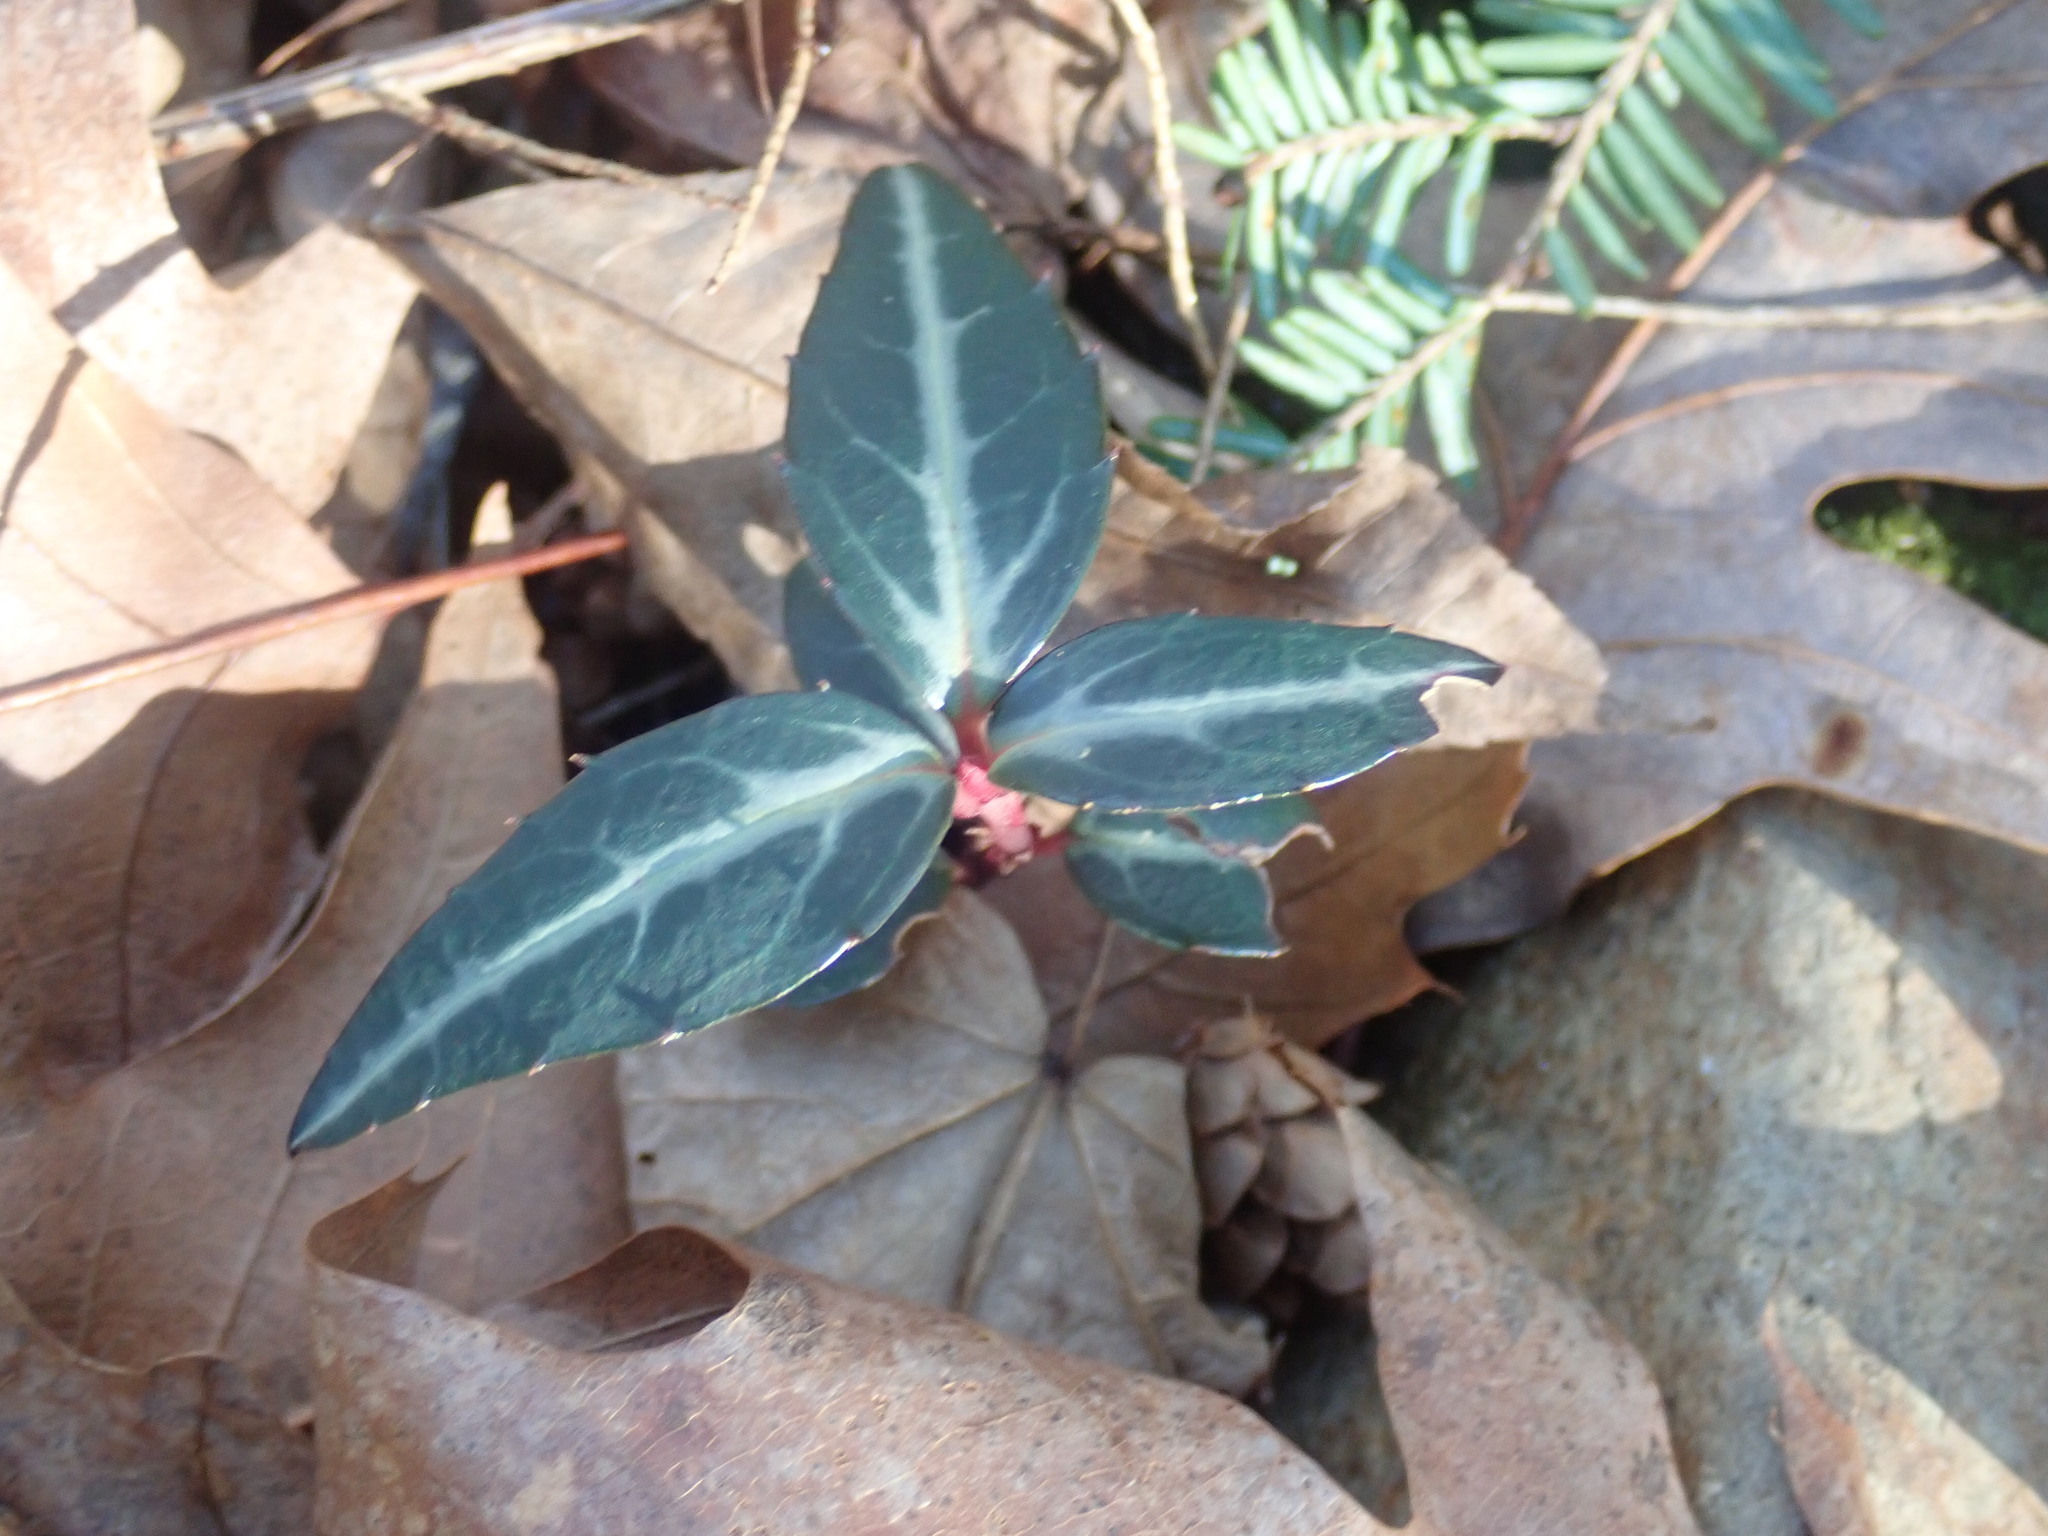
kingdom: Plantae
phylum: Tracheophyta
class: Magnoliopsida
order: Ericales
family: Ericaceae
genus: Chimaphila
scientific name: Chimaphila maculata
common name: Spotted pipsissewa
